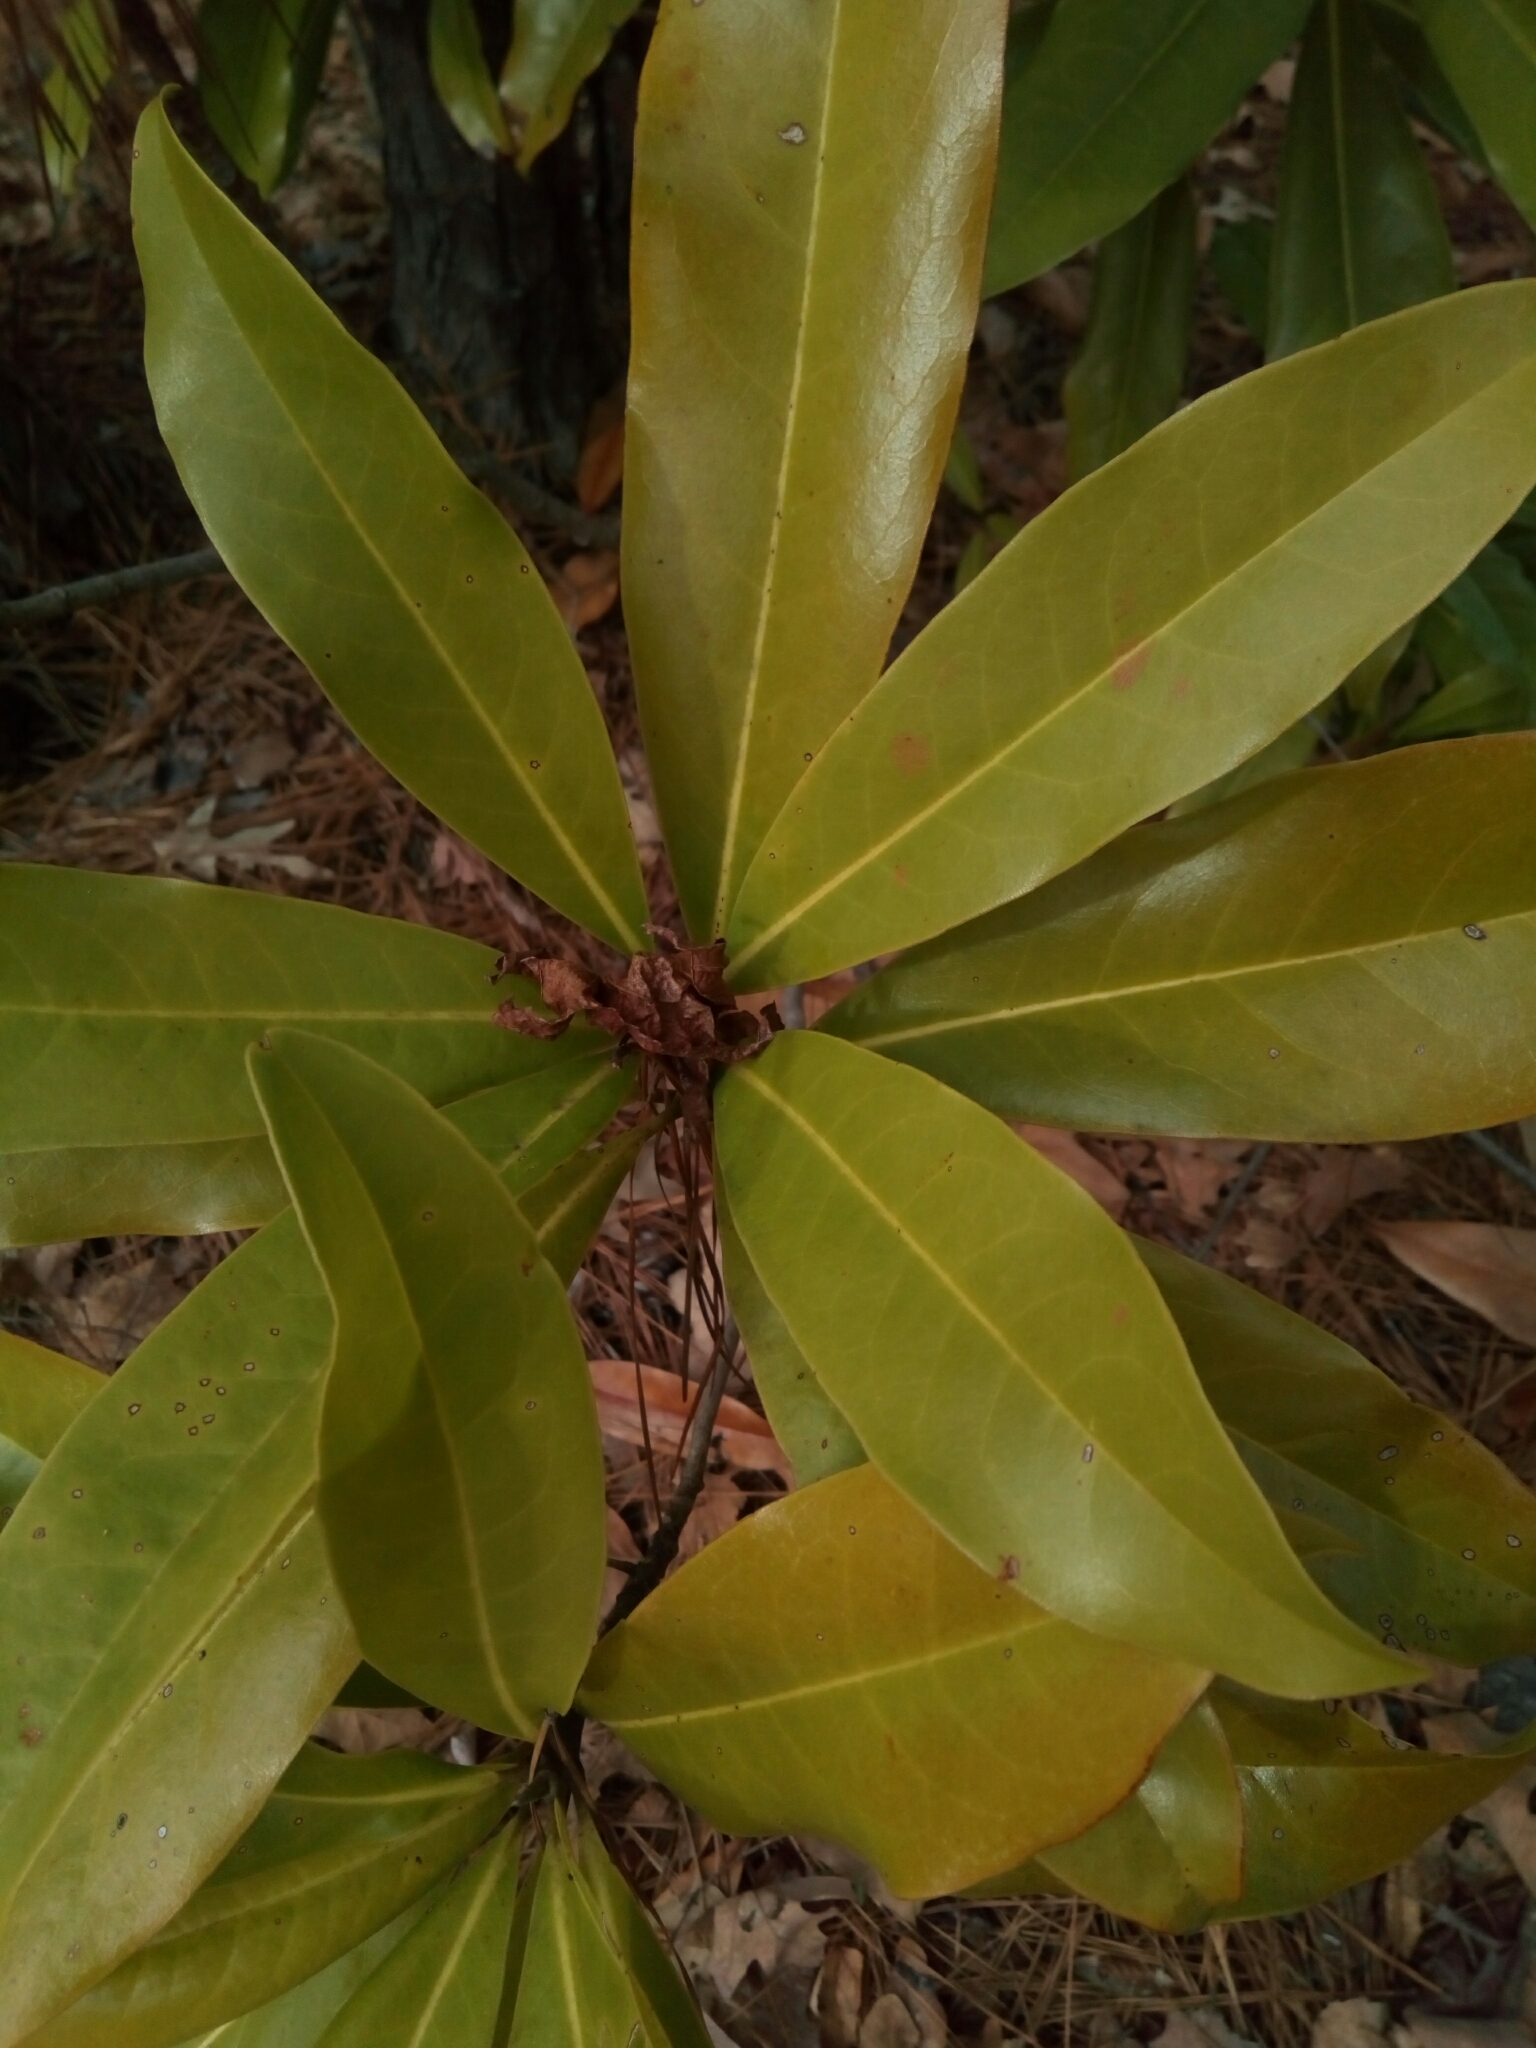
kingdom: Plantae
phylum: Tracheophyta
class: Magnoliopsida
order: Magnoliales
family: Magnoliaceae
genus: Magnolia
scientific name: Magnolia grandiflora
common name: Southern magnolia
